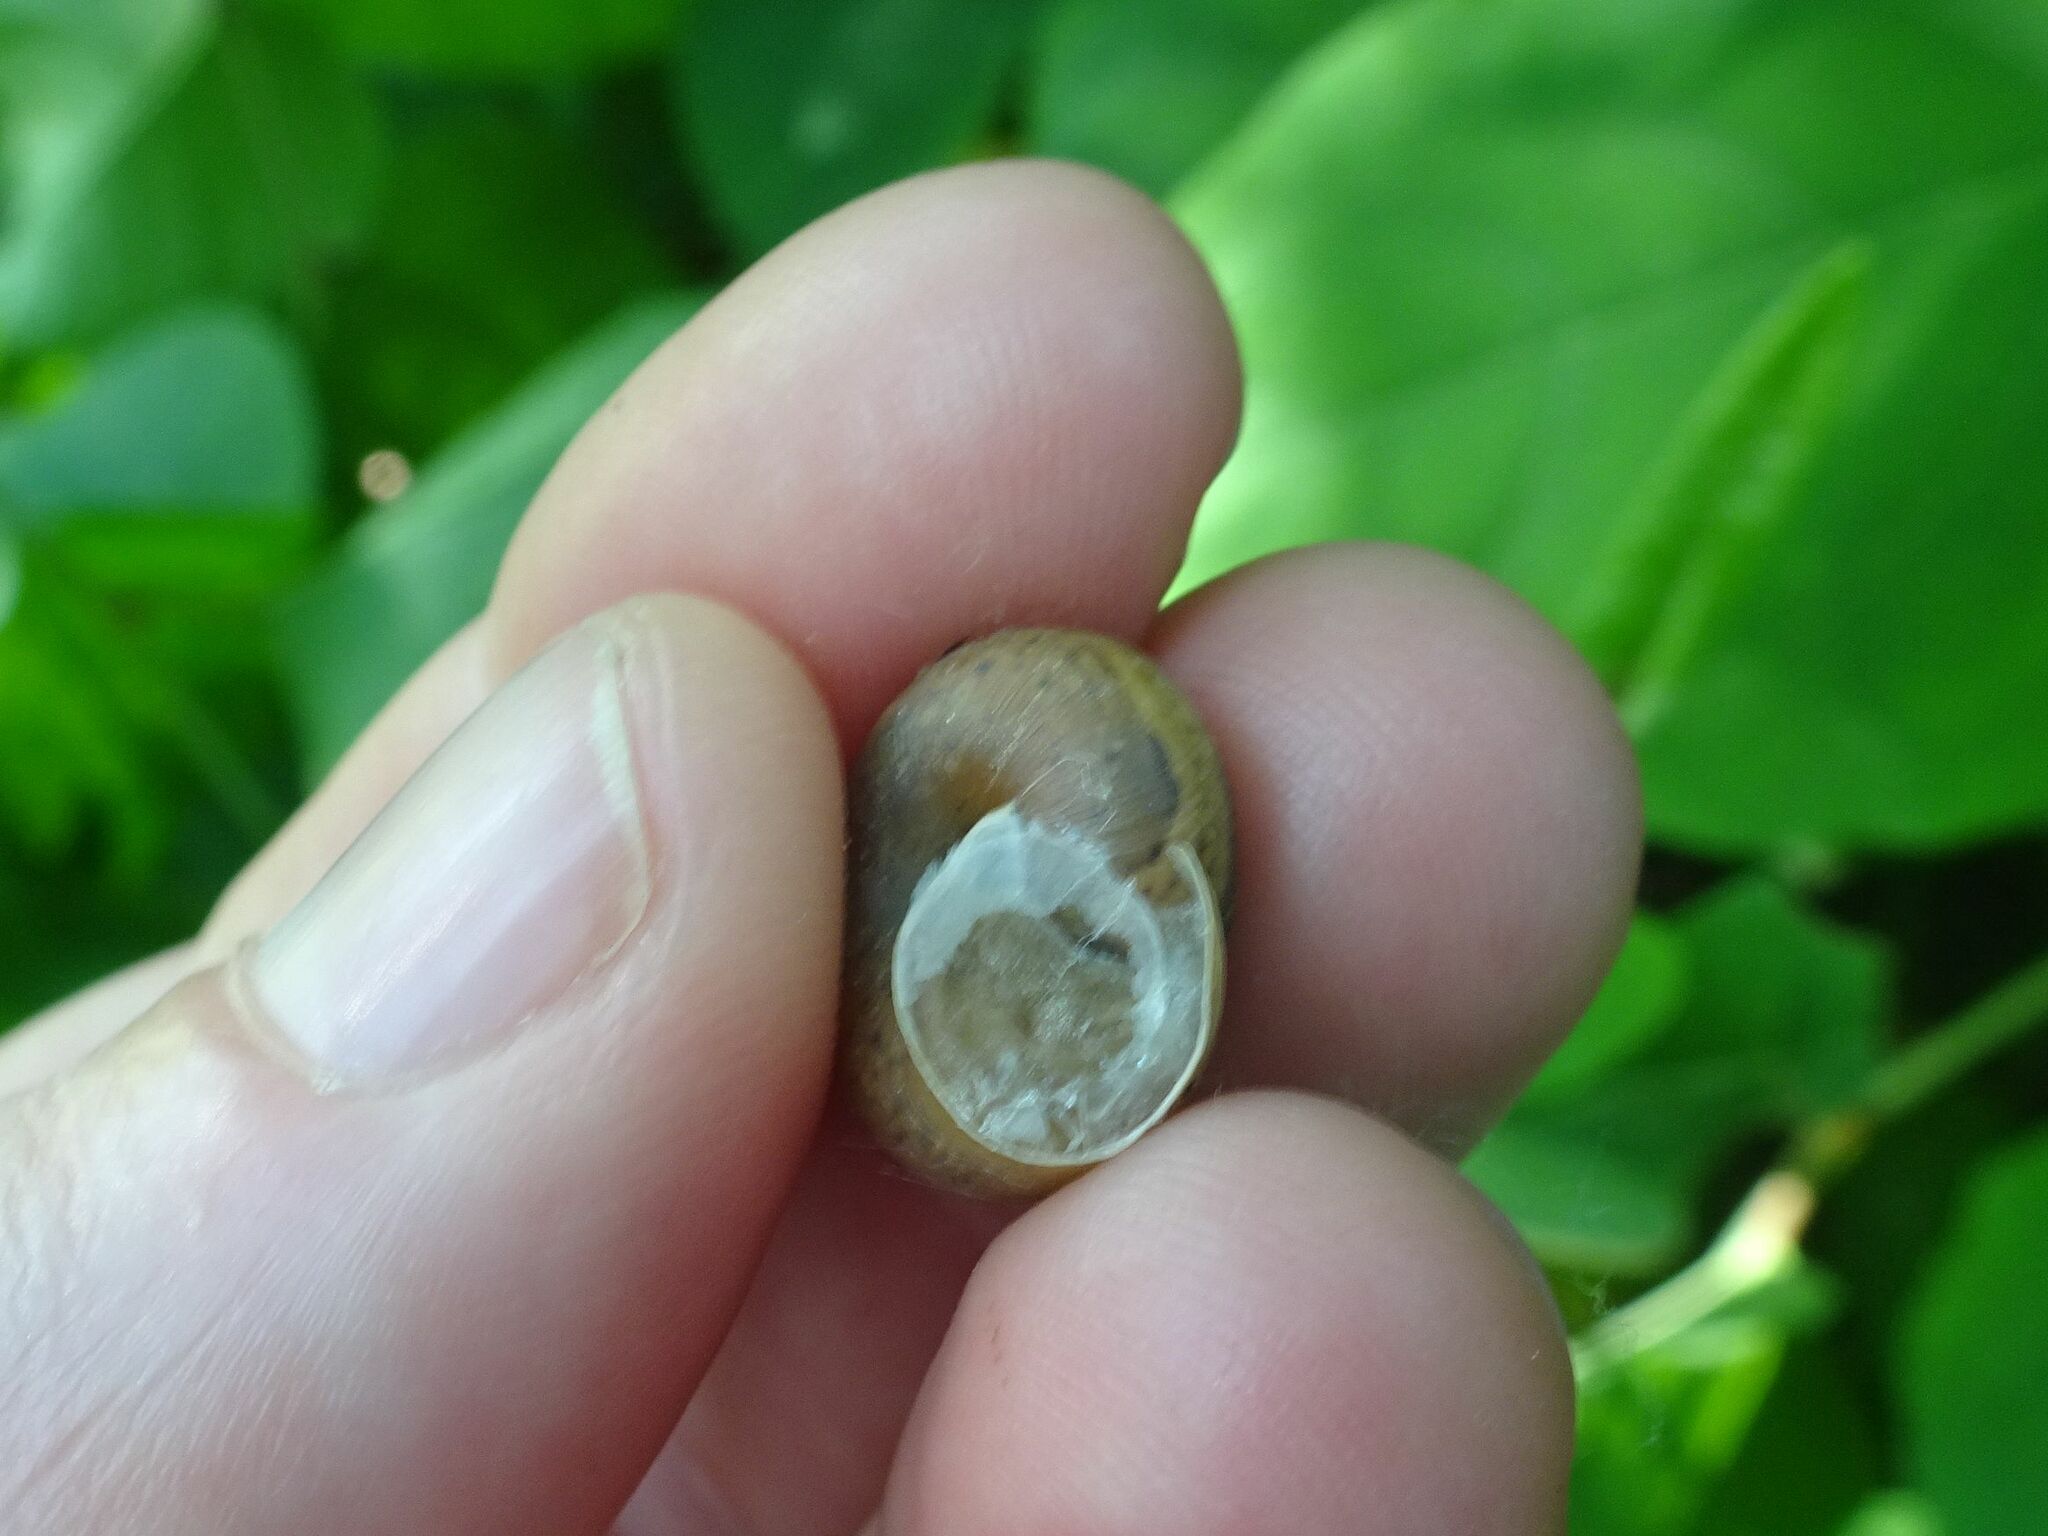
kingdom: Animalia
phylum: Mollusca
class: Gastropoda
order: Stylommatophora
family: Hygromiidae
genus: Euomphalia
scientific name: Euomphalia strigella
